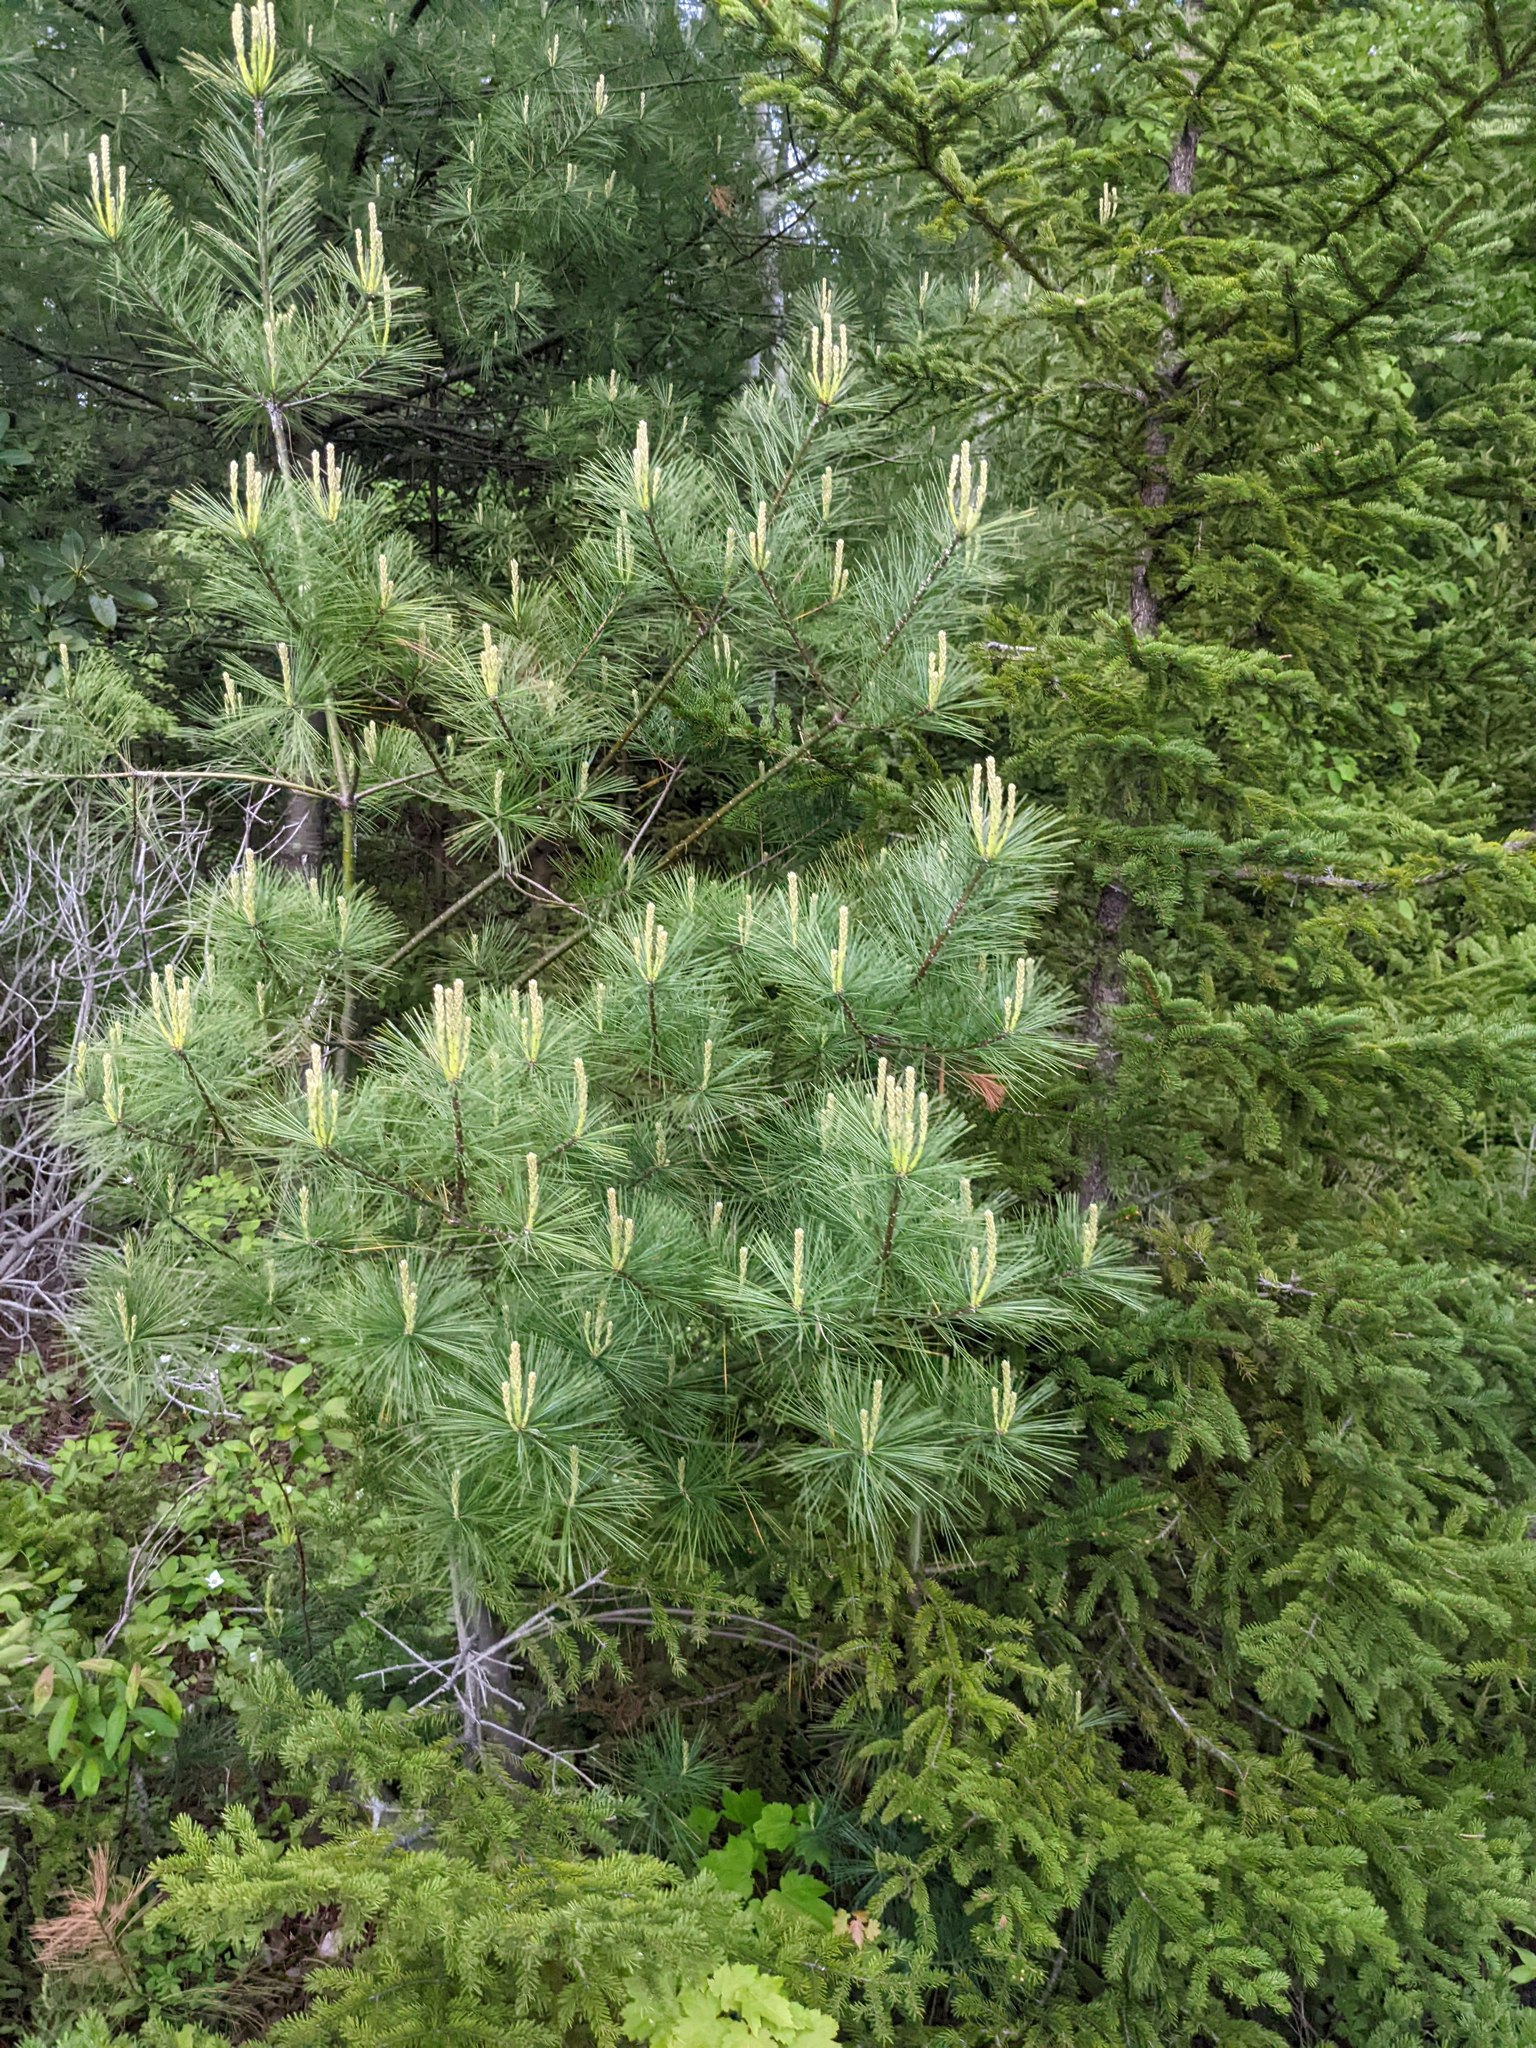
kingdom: Plantae
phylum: Tracheophyta
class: Pinopsida
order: Pinales
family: Pinaceae
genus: Pinus
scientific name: Pinus strobus
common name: Weymouth pine
